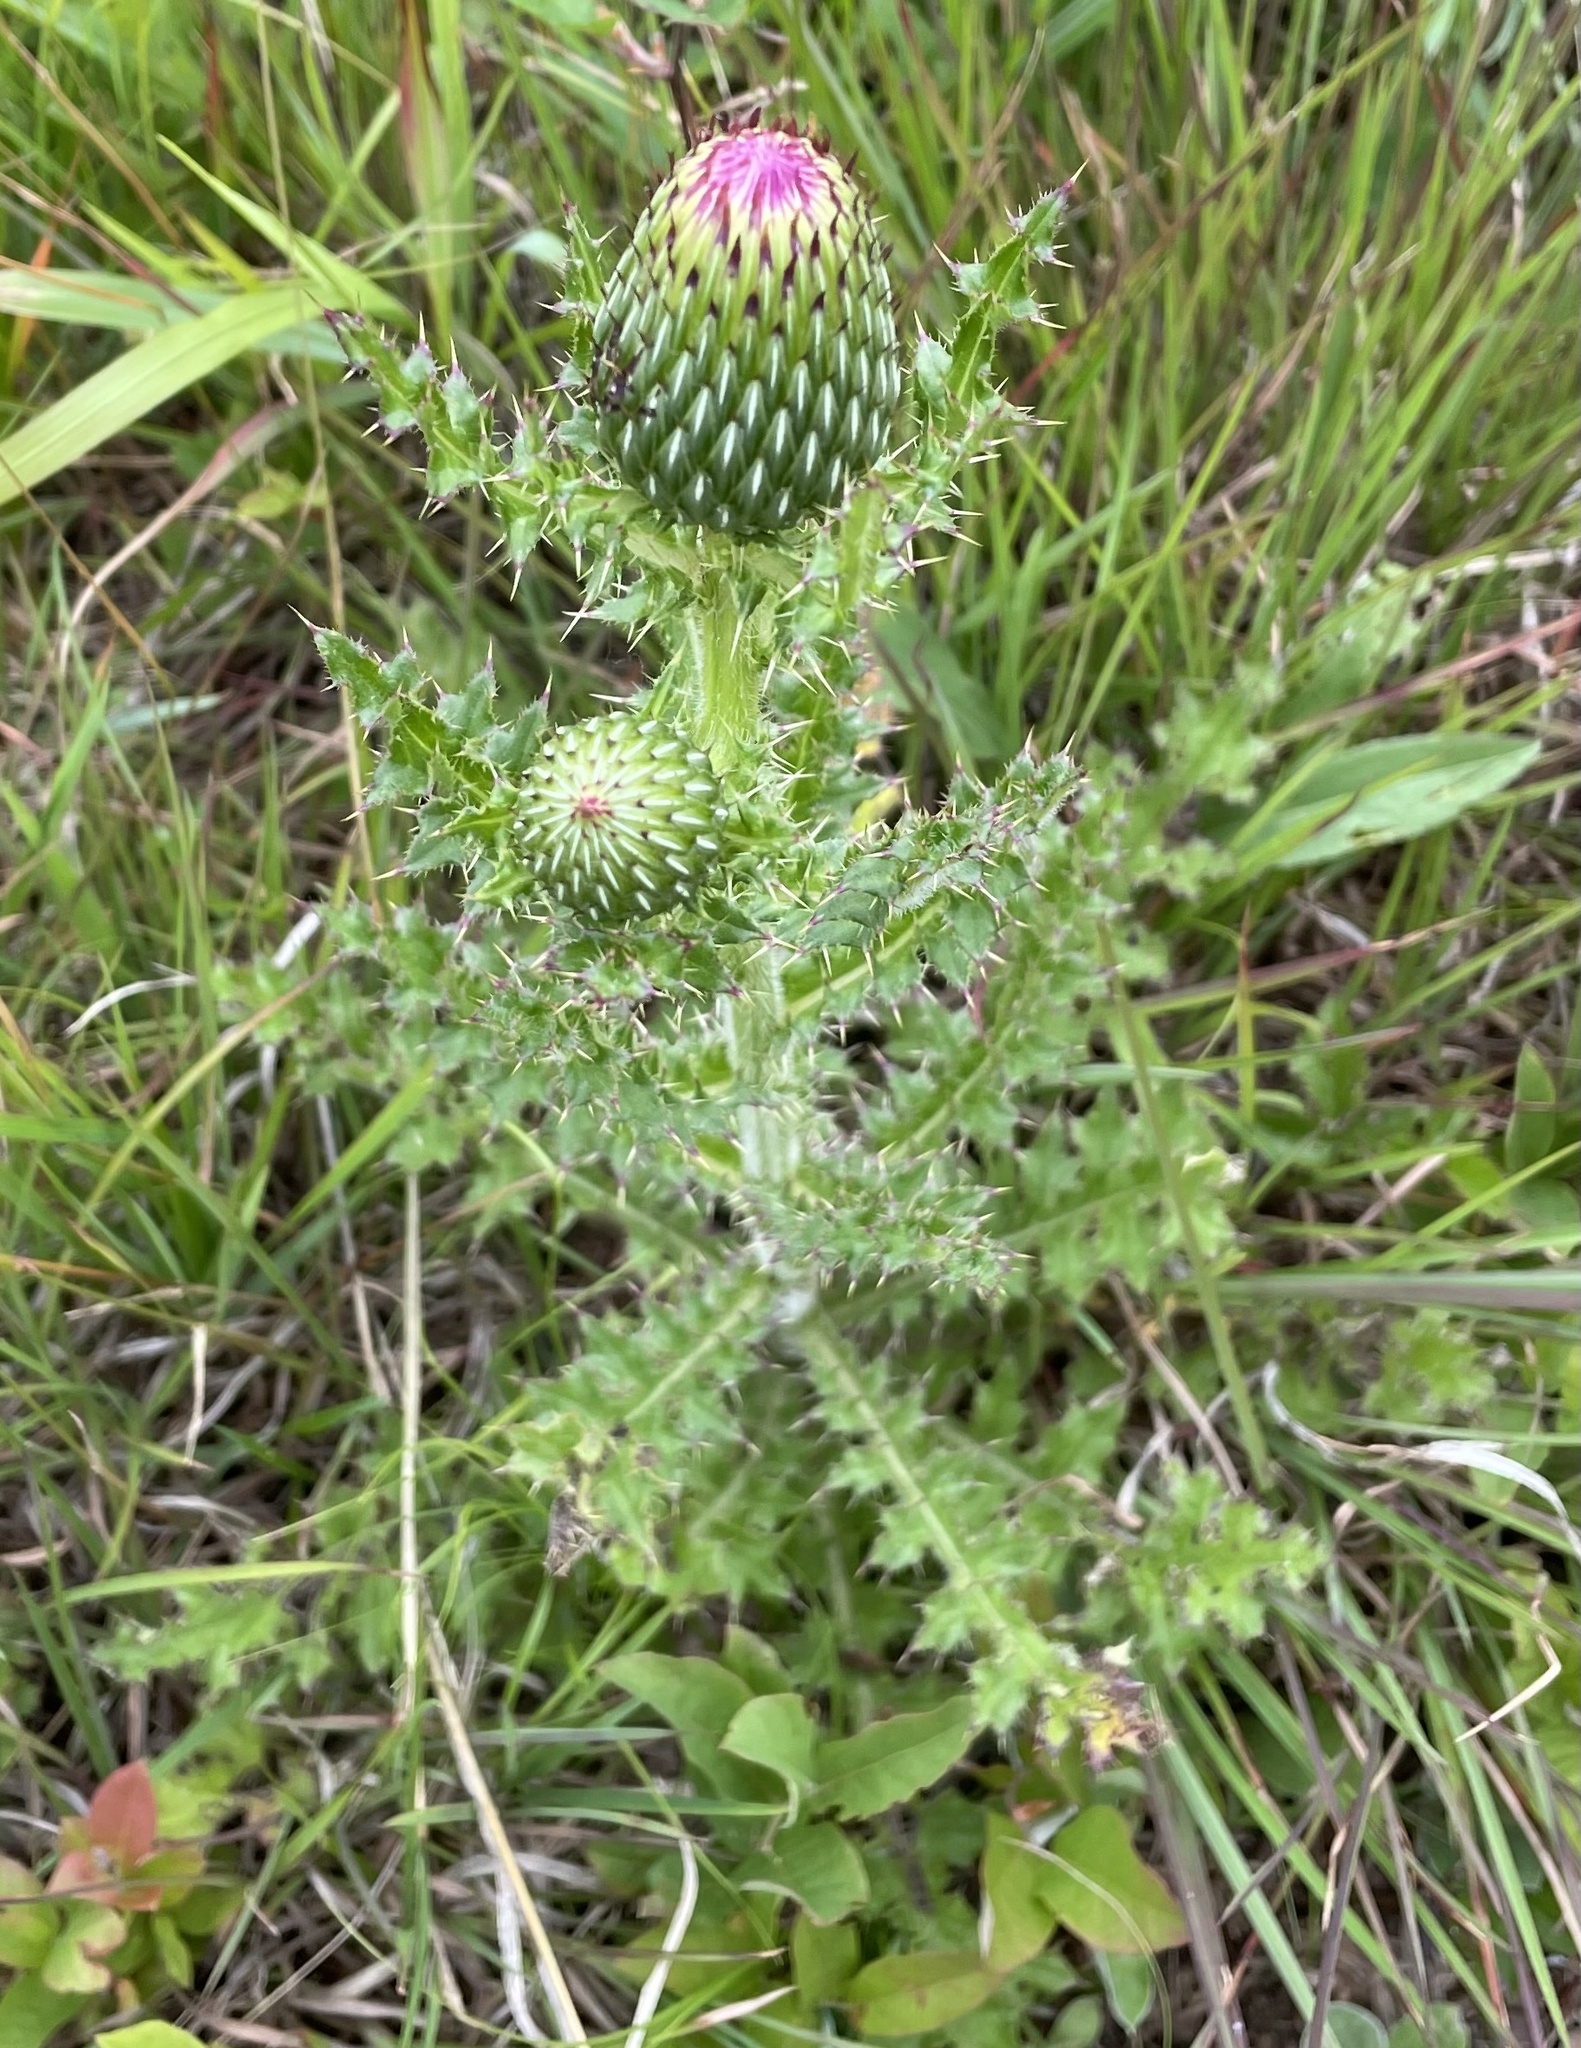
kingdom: Plantae
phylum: Tracheophyta
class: Magnoliopsida
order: Asterales
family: Asteraceae
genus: Cirsium
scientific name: Cirsium pumilum
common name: Pasture thistle
